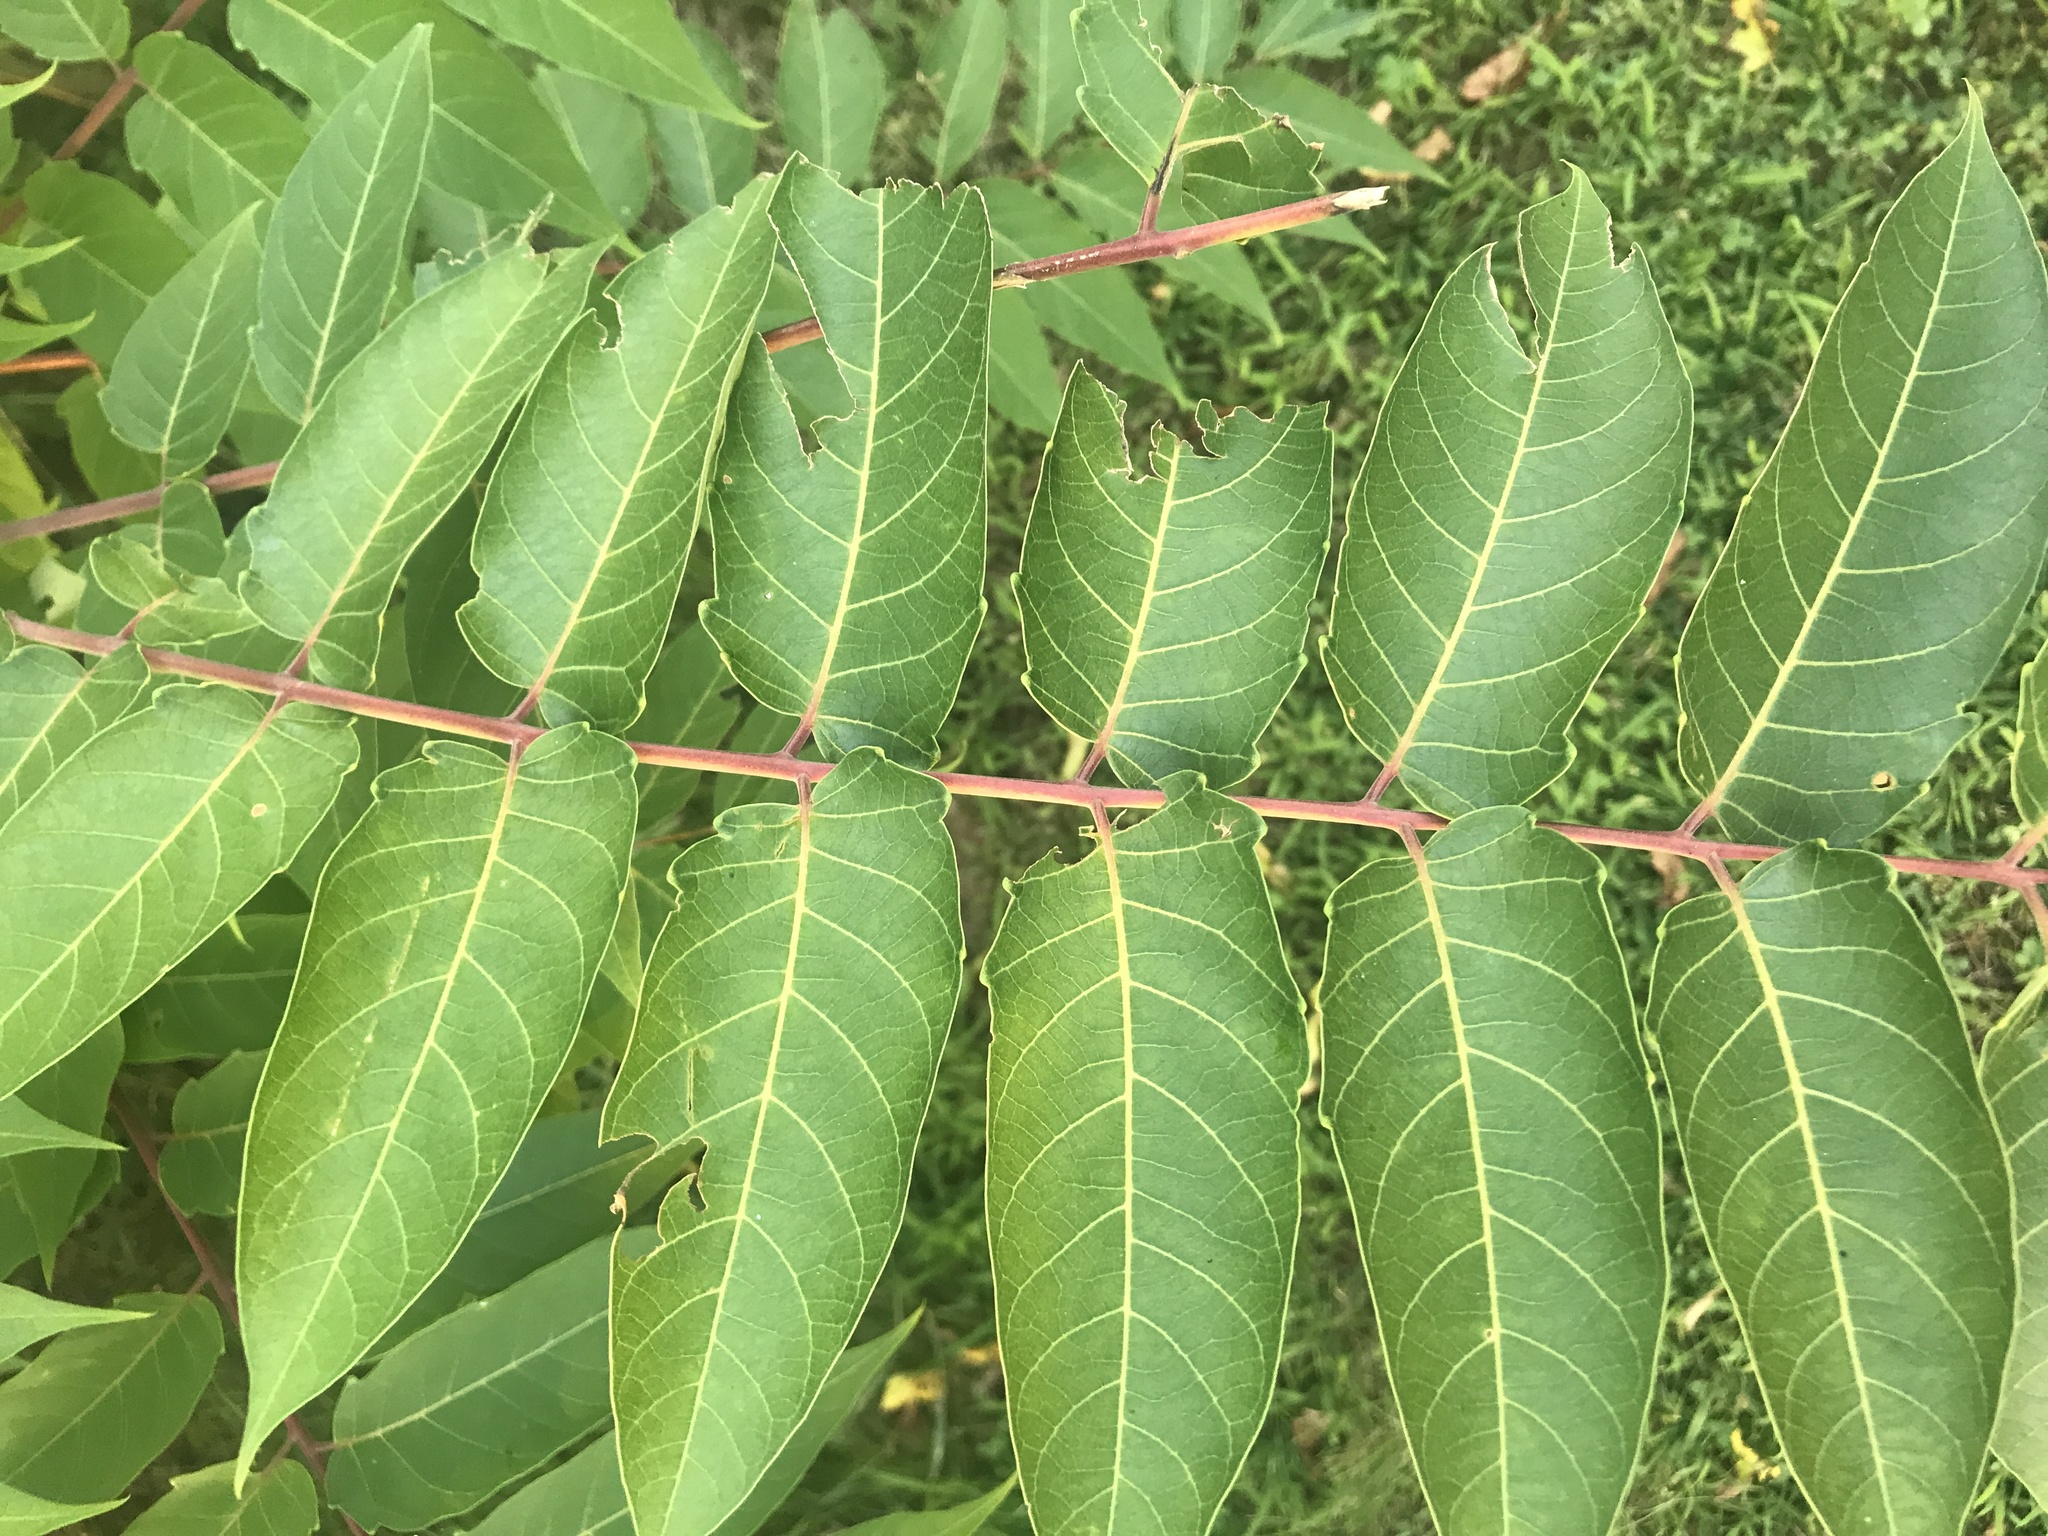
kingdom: Plantae
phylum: Tracheophyta
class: Magnoliopsida
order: Sapindales
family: Simaroubaceae
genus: Ailanthus
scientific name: Ailanthus altissima
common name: Tree-of-heaven
